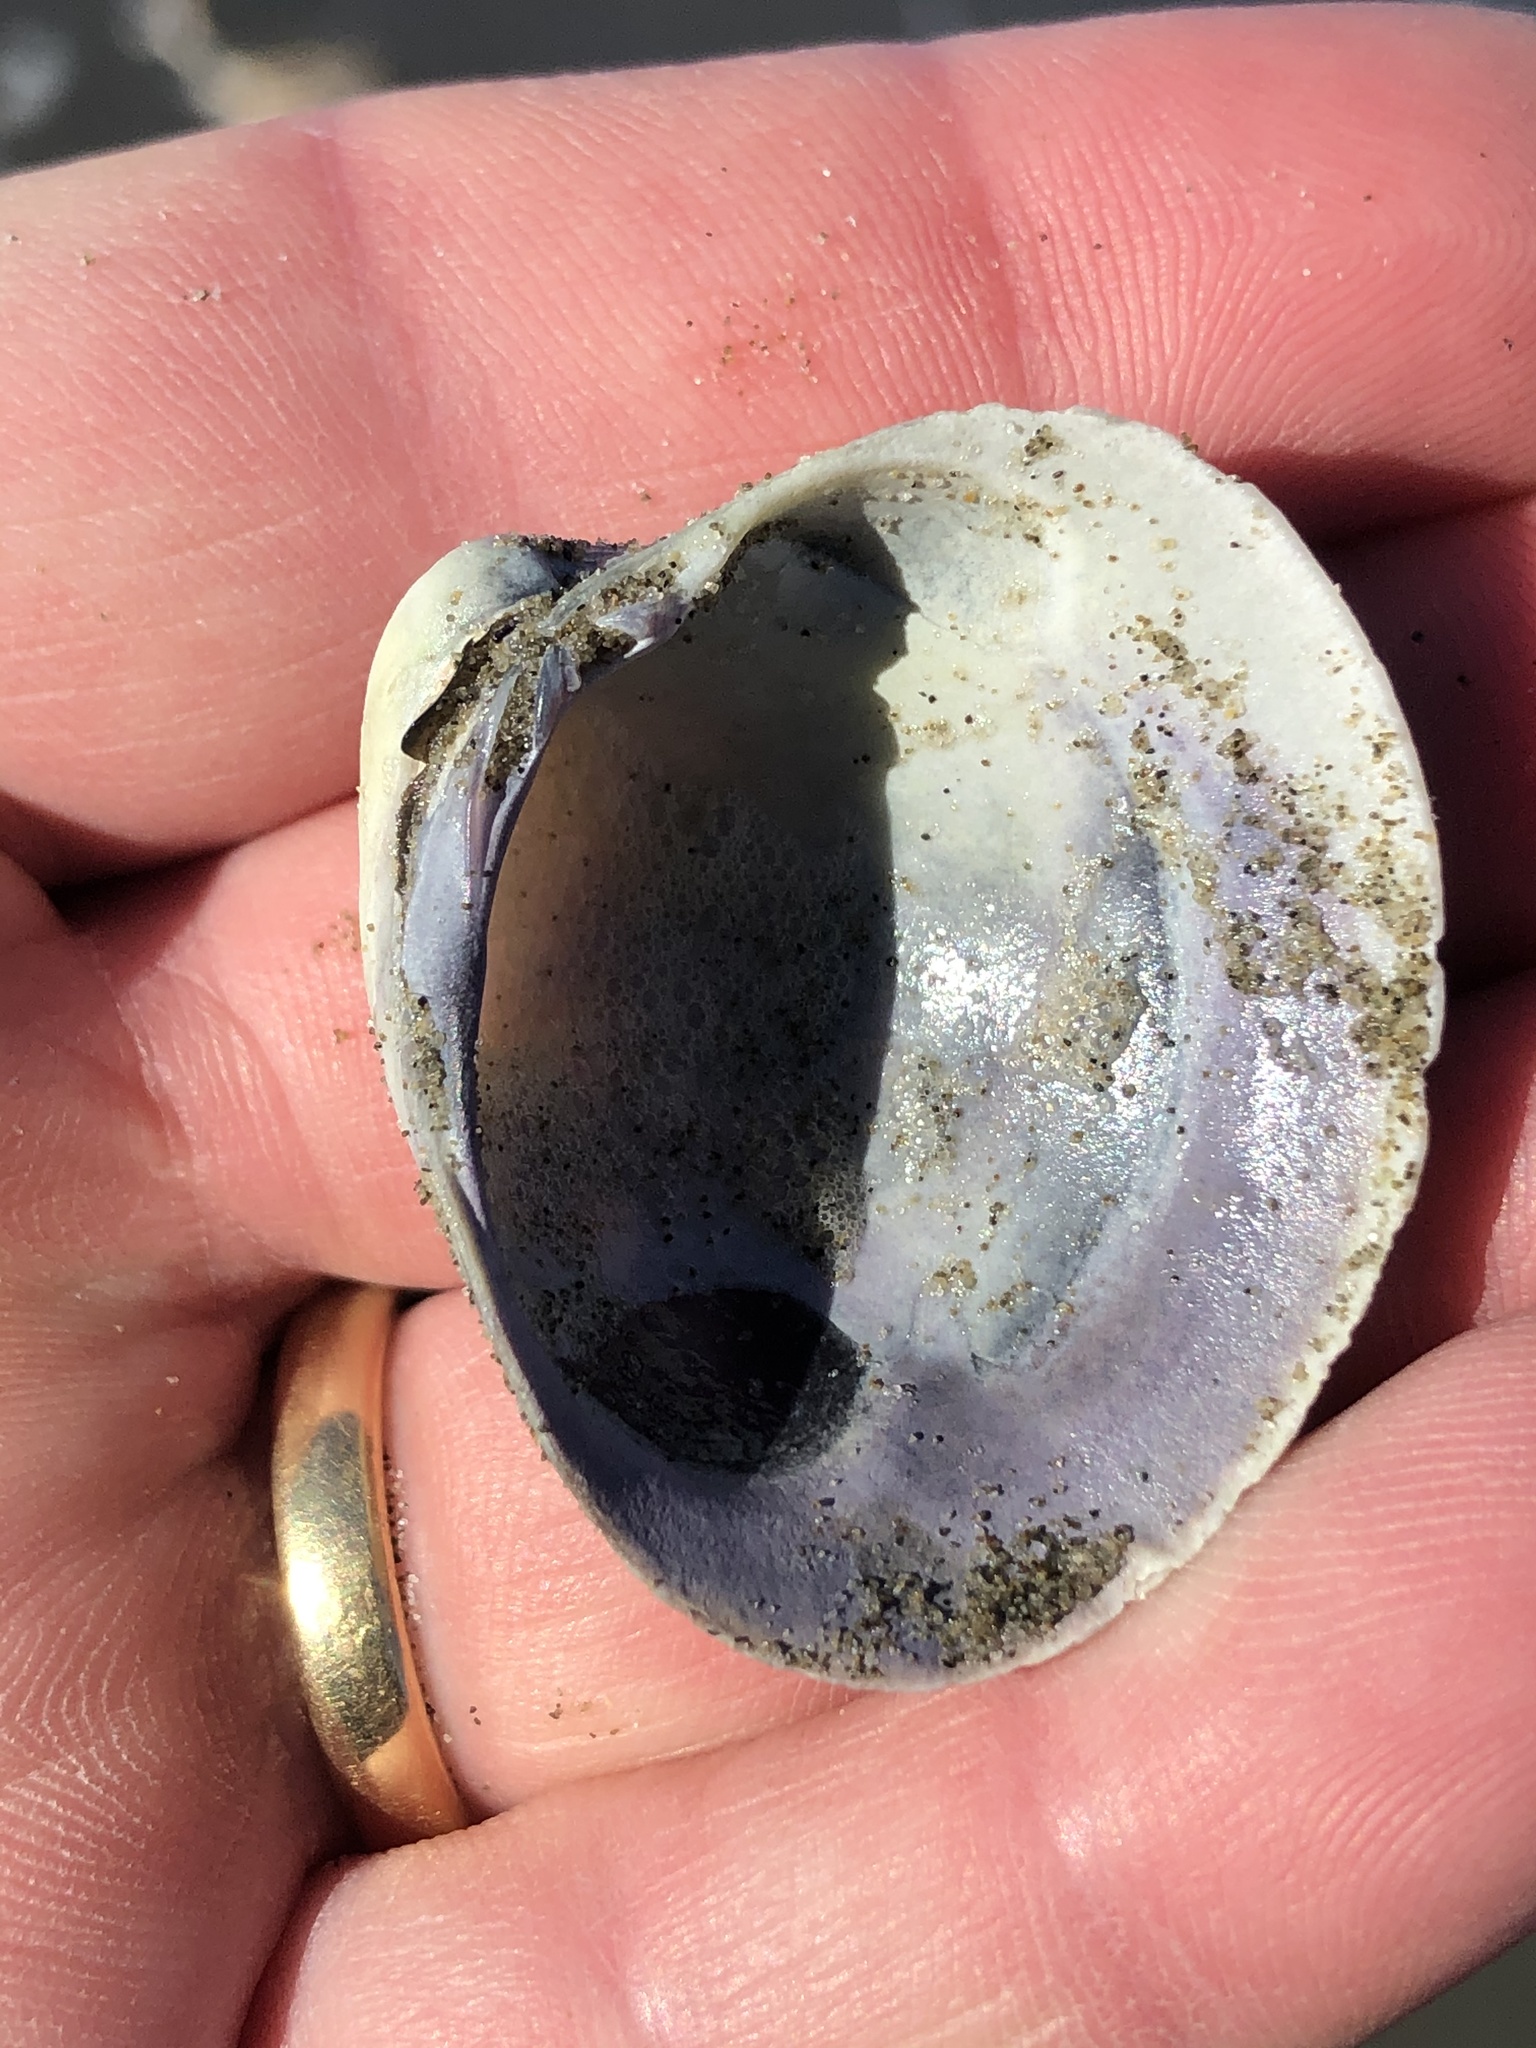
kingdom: Animalia
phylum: Mollusca
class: Bivalvia
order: Venerida
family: Veneridae
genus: Austrovenus
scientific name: Austrovenus stutchburyi
